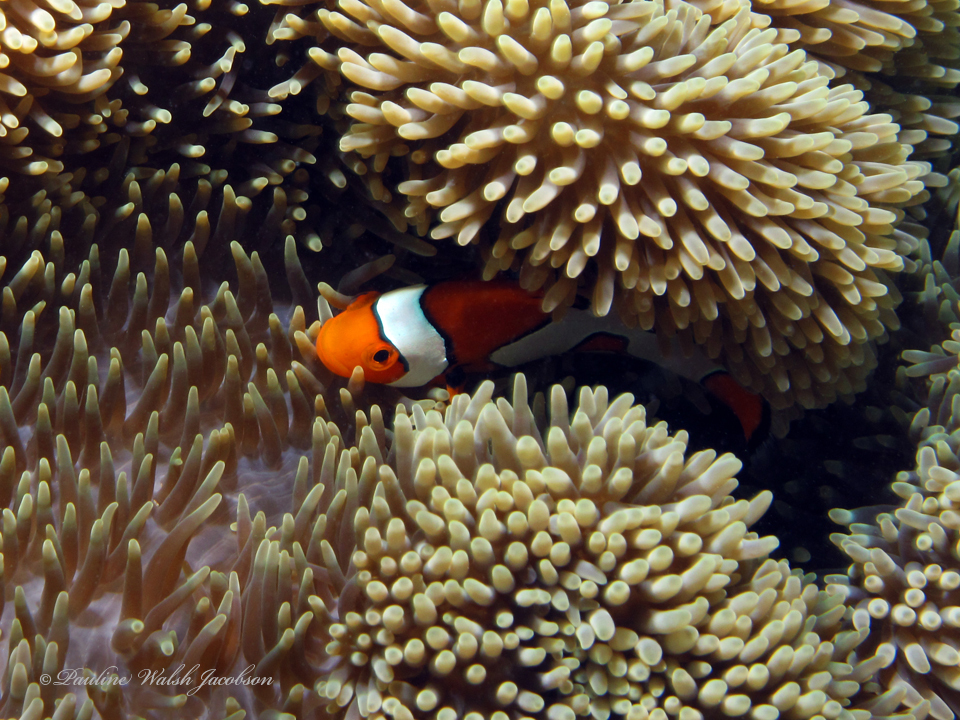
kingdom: Animalia
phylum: Chordata
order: Perciformes
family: Pomacentridae
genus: Amphiprion
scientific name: Amphiprion ocellaris
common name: Clown anemonefish
